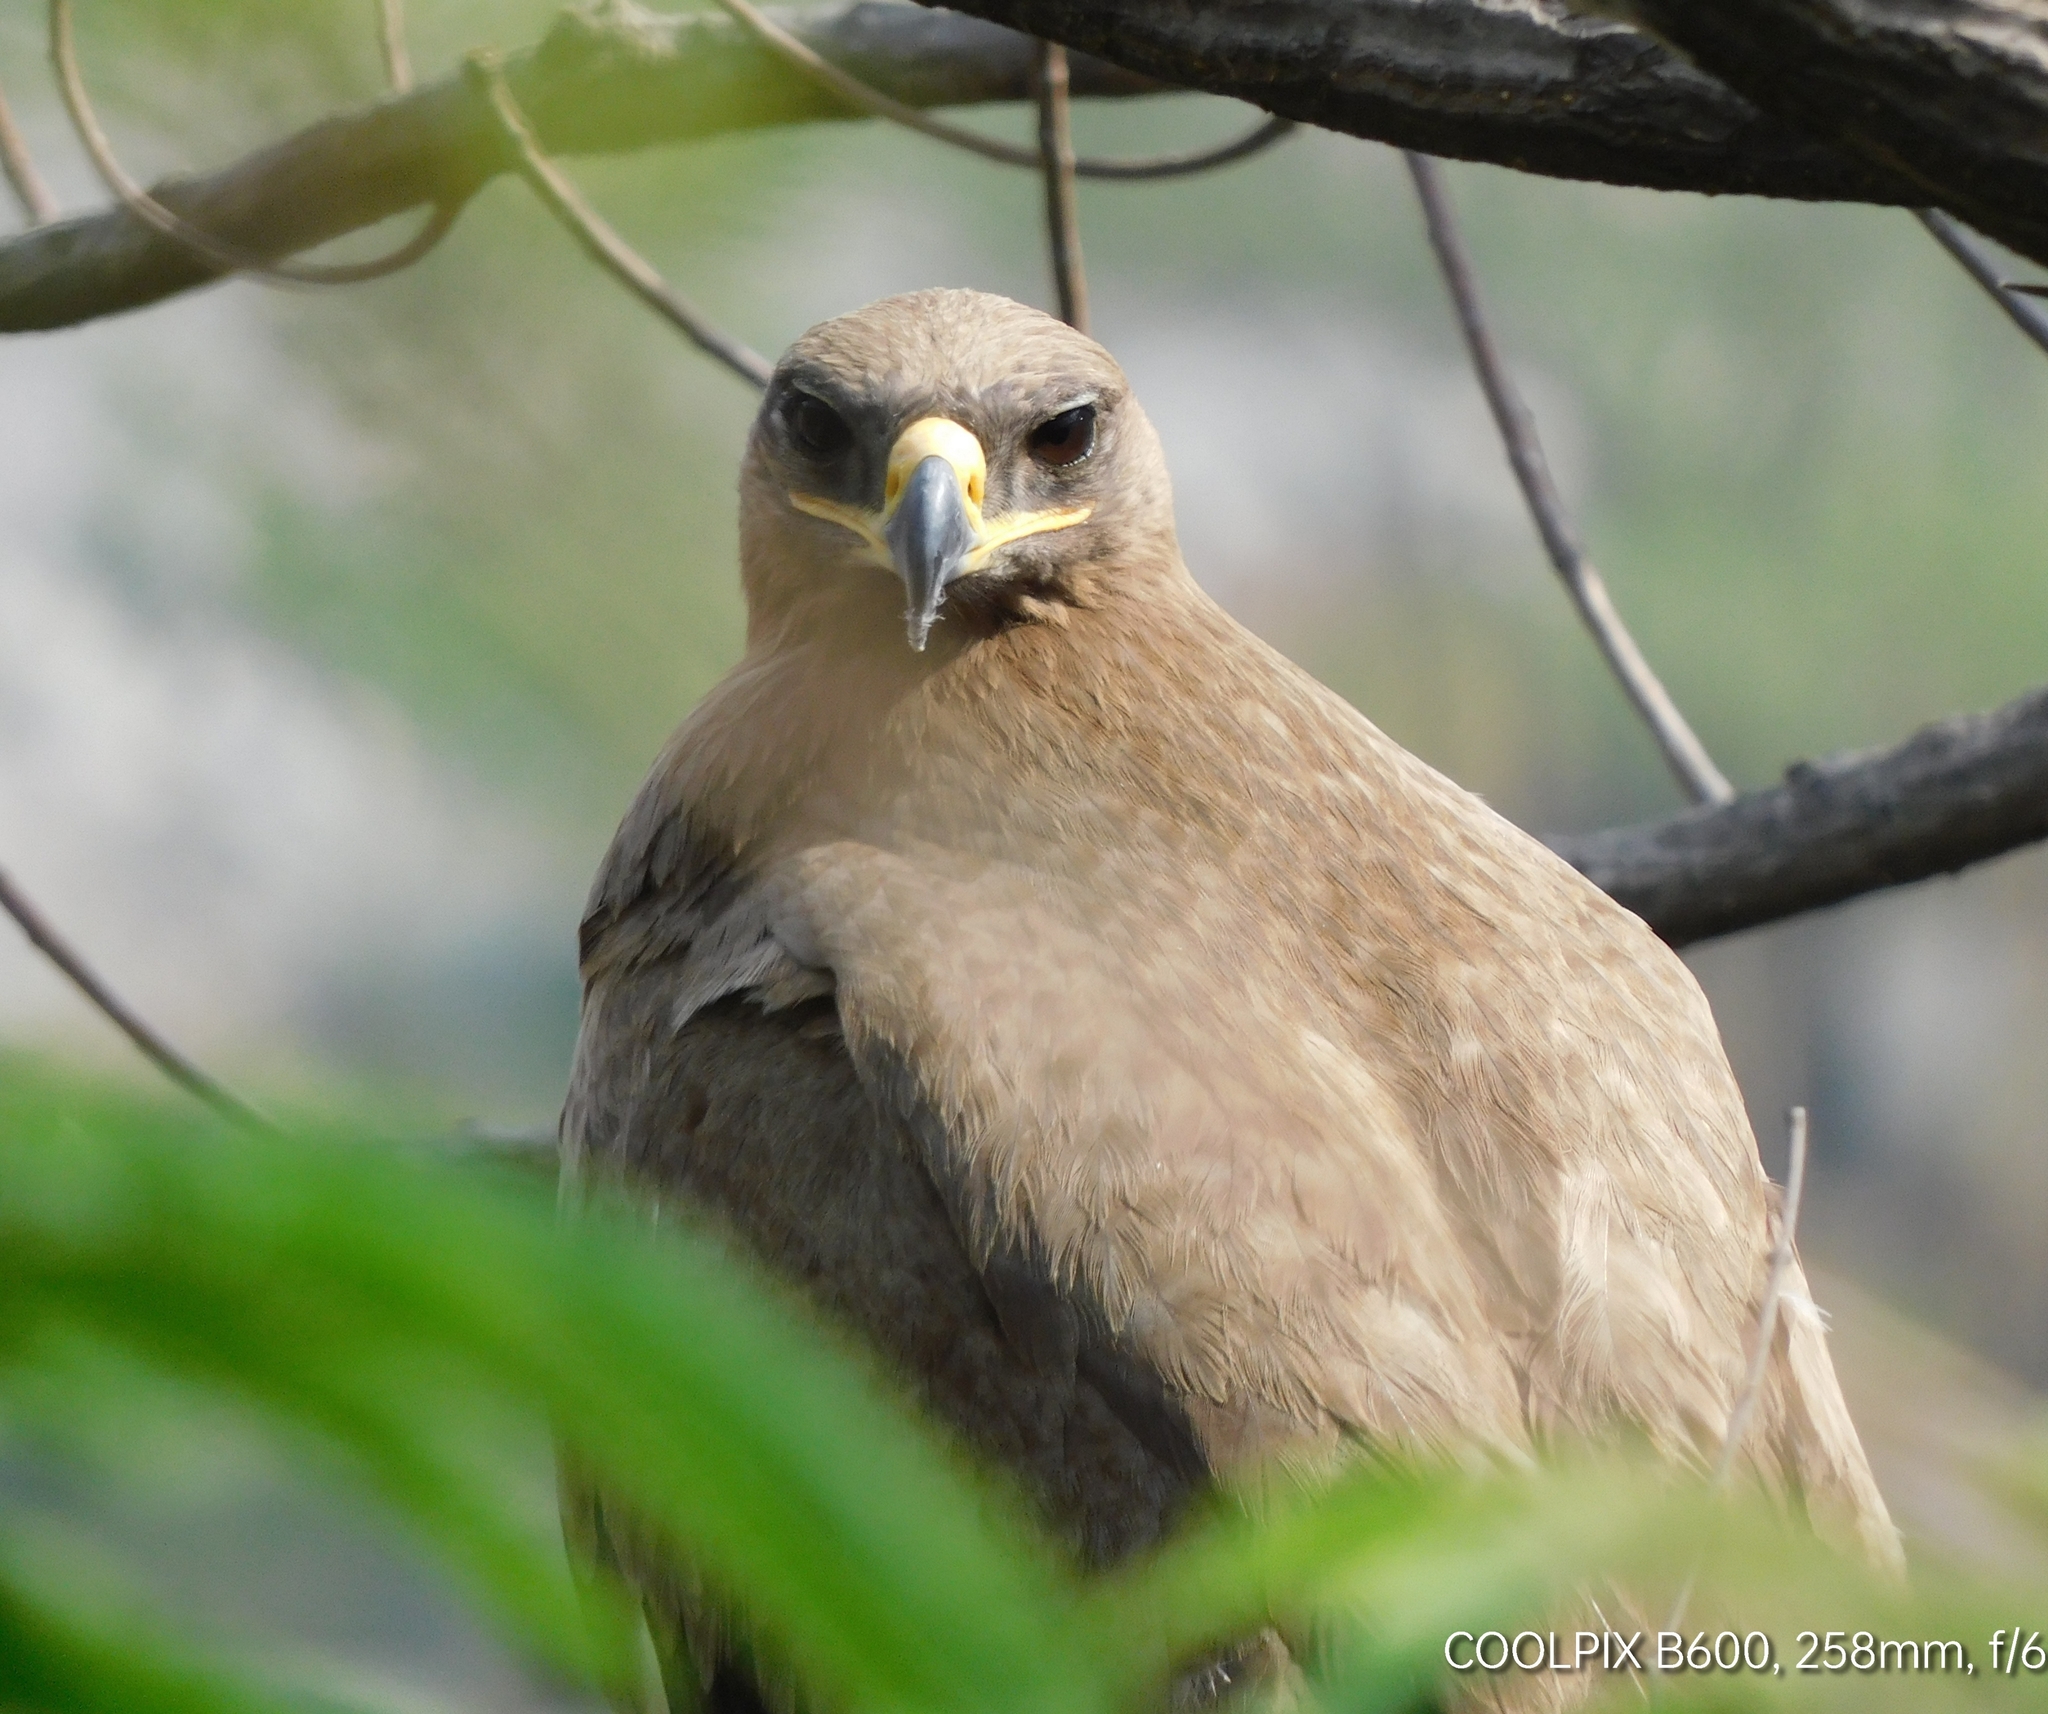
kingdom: Animalia
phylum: Chordata
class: Aves
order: Accipitriformes
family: Accipitridae
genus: Aquila
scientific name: Aquila nipalensis
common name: Steppe eagle
